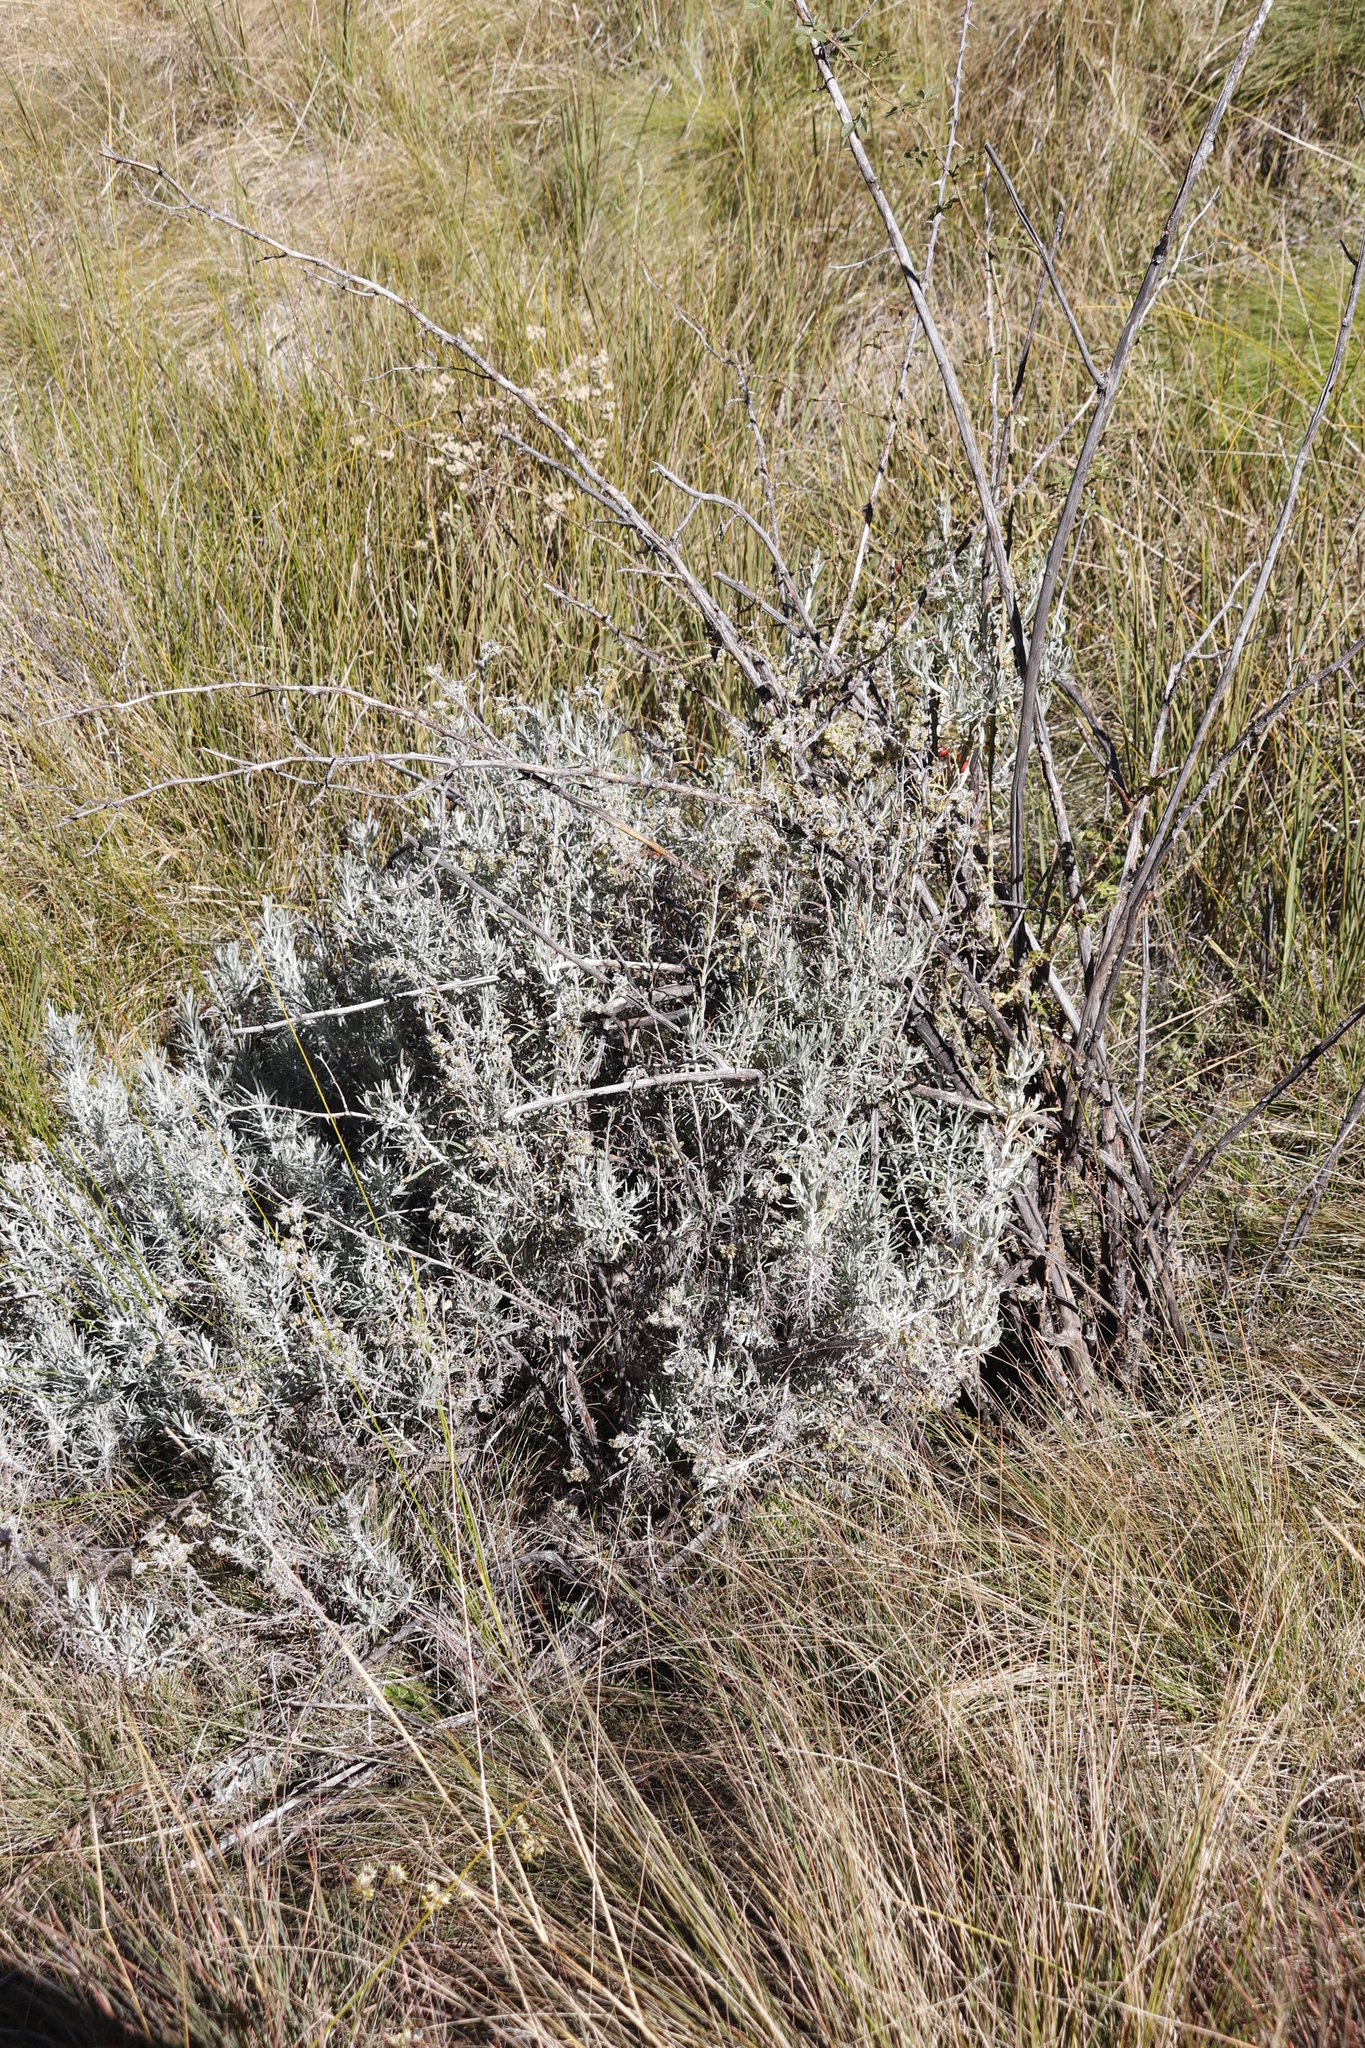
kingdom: Plantae
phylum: Tracheophyta
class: Magnoliopsida
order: Rosales
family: Rosaceae
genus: Rosa
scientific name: Rosa rubiginosa
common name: Sweet-briar
